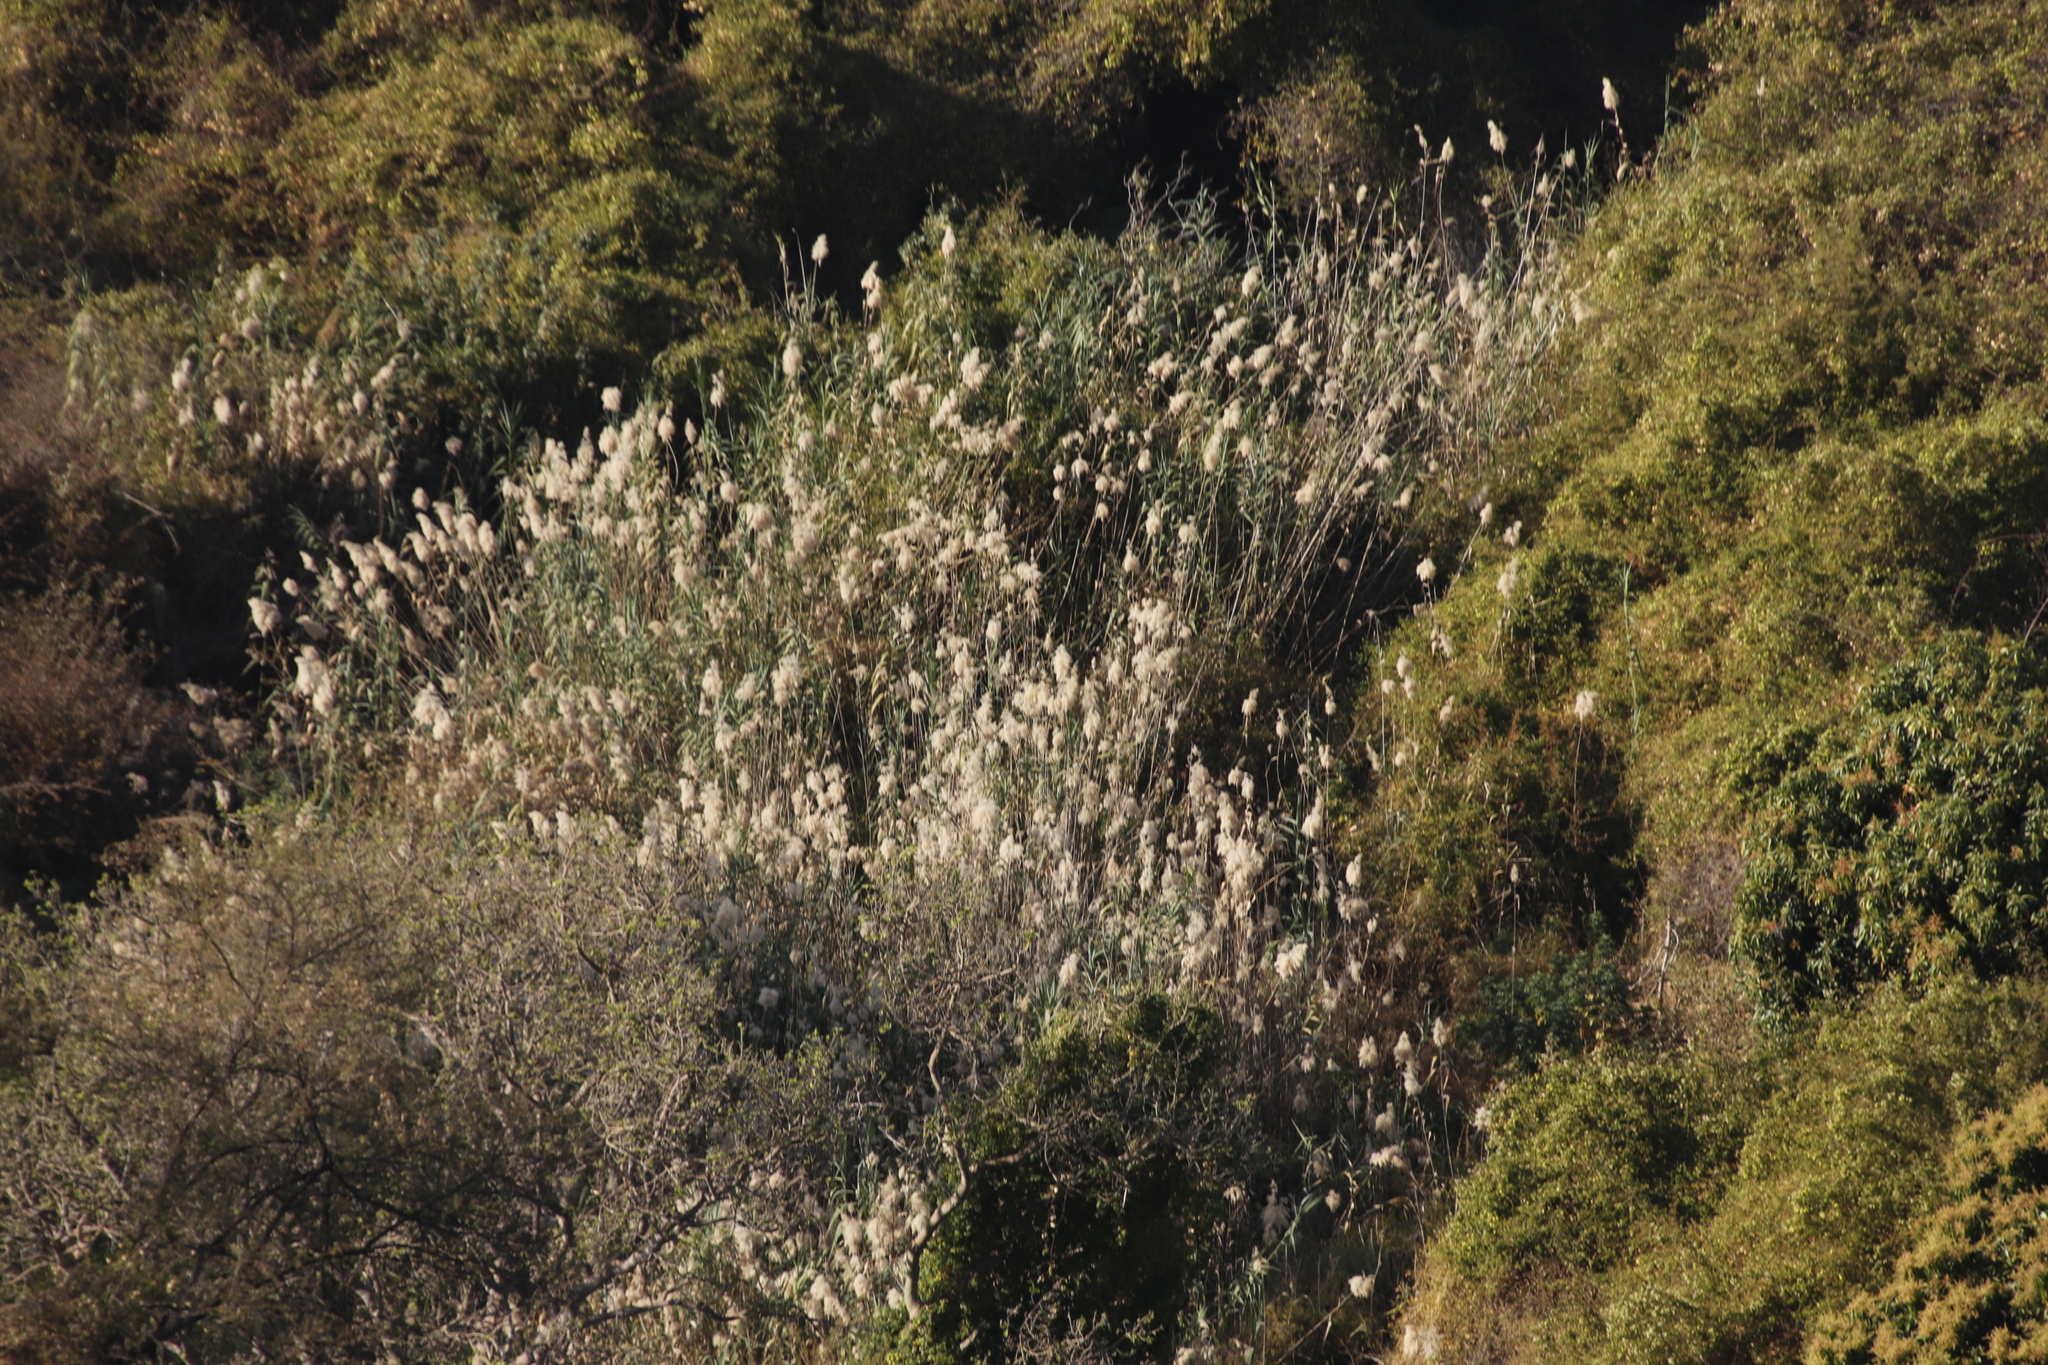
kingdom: Plantae
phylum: Tracheophyta
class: Liliopsida
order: Poales
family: Poaceae
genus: Phragmites
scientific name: Phragmites australis
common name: Common reed
